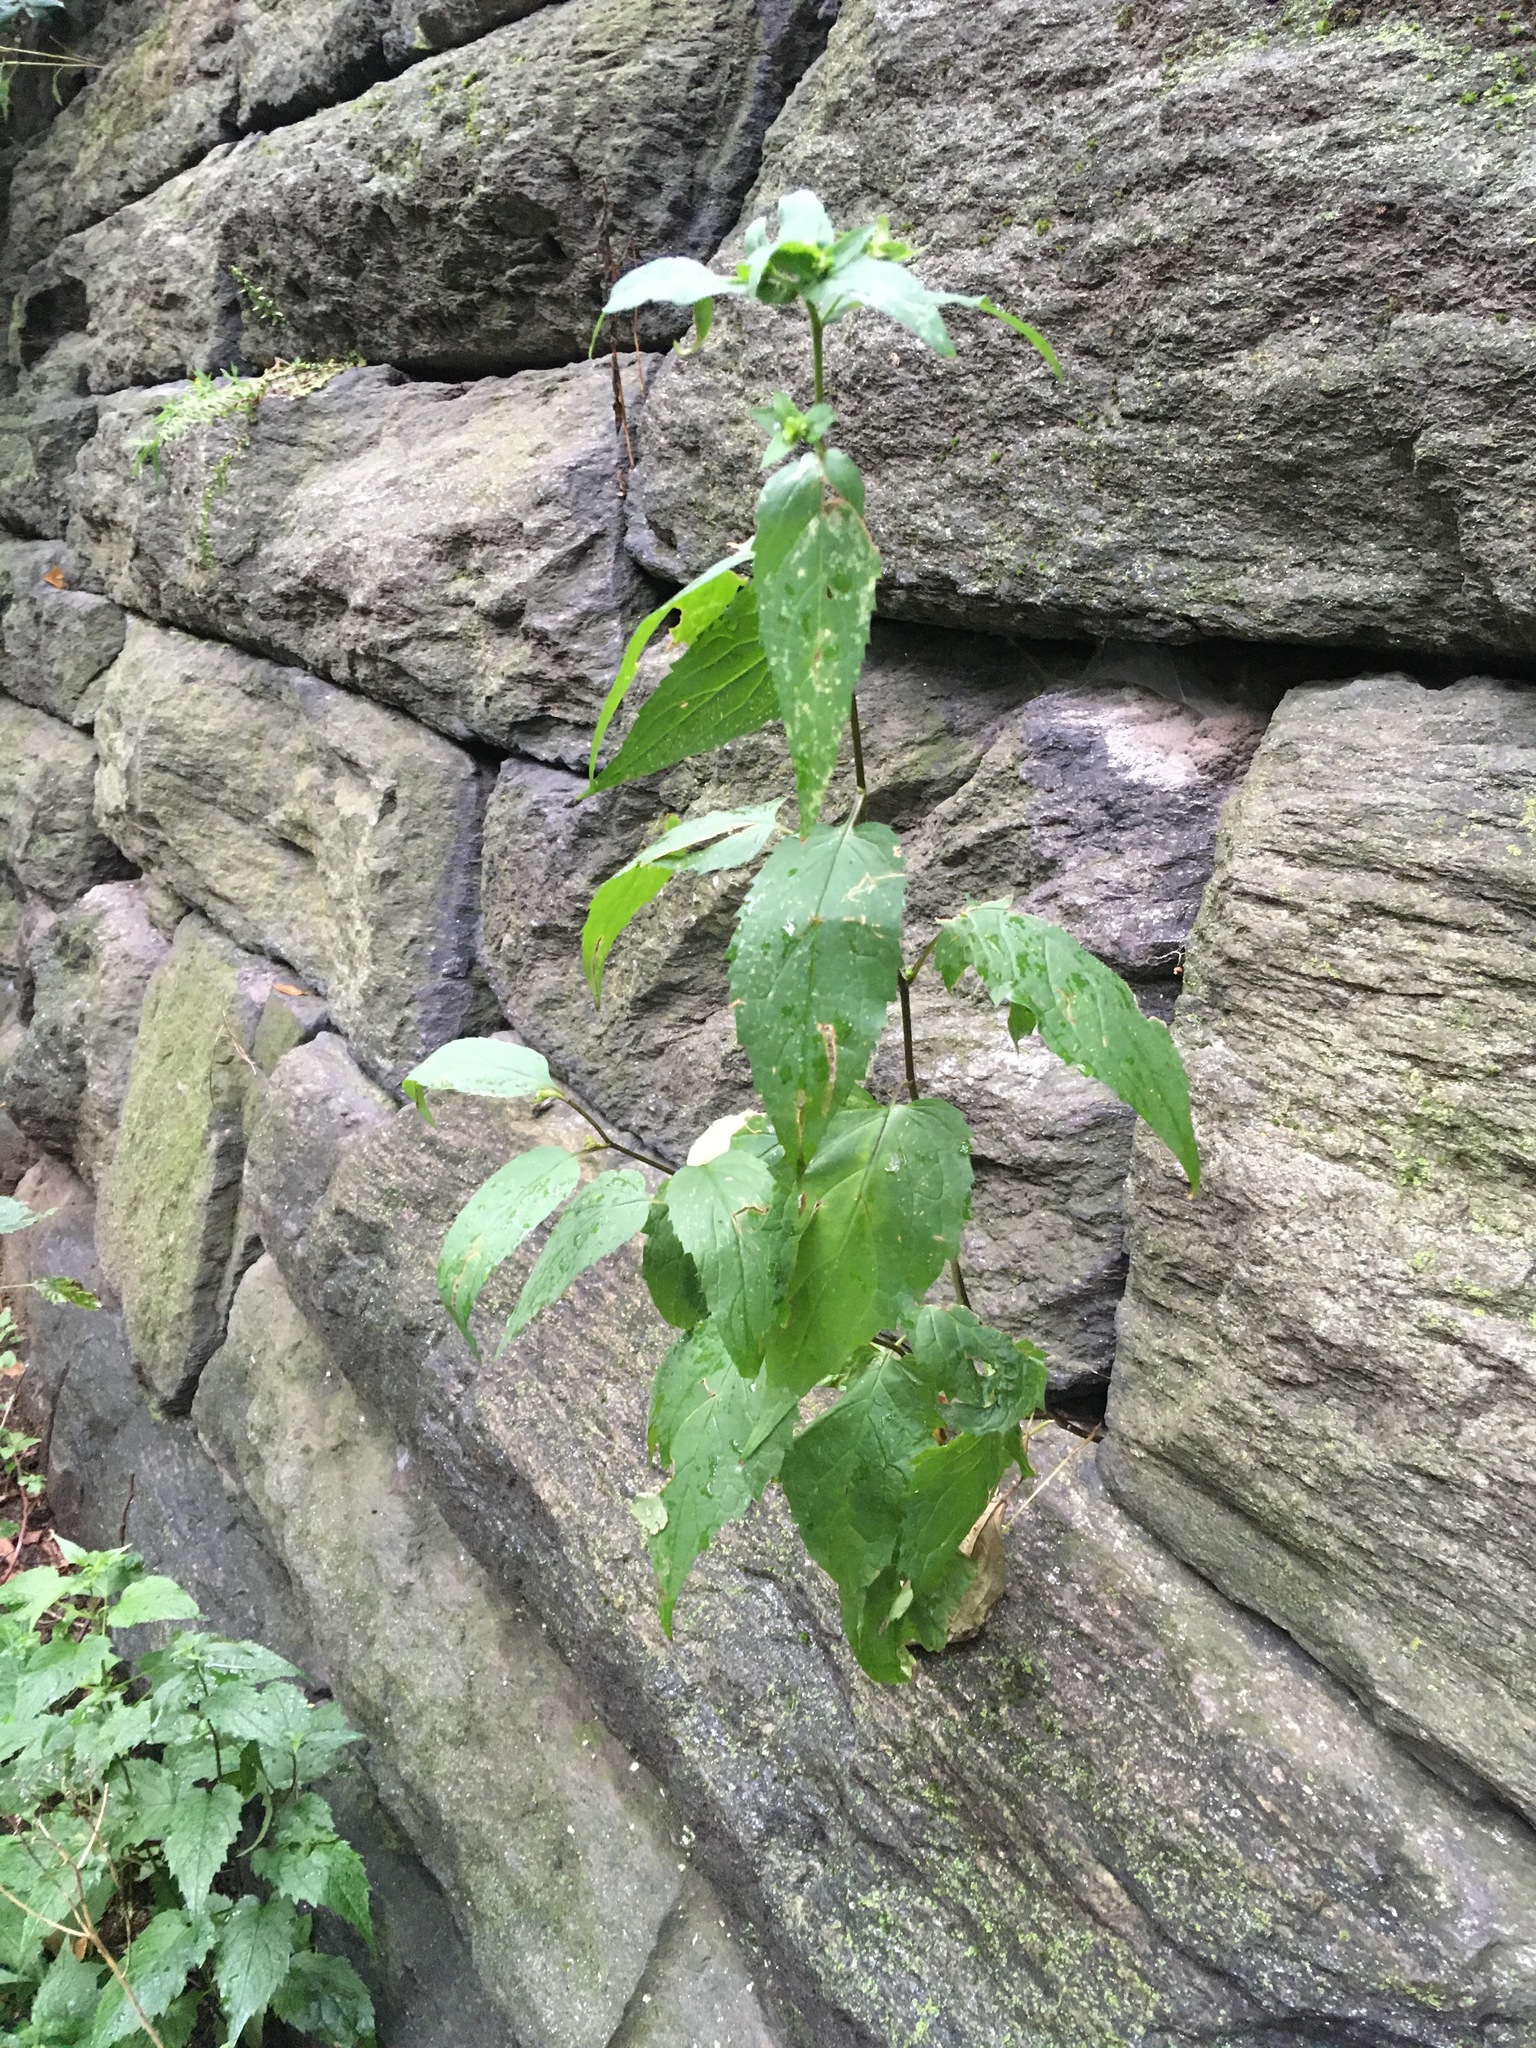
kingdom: Plantae
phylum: Tracheophyta
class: Magnoliopsida
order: Asterales
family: Asteraceae
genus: Eurybia
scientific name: Eurybia divaricata
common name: White wood aster
